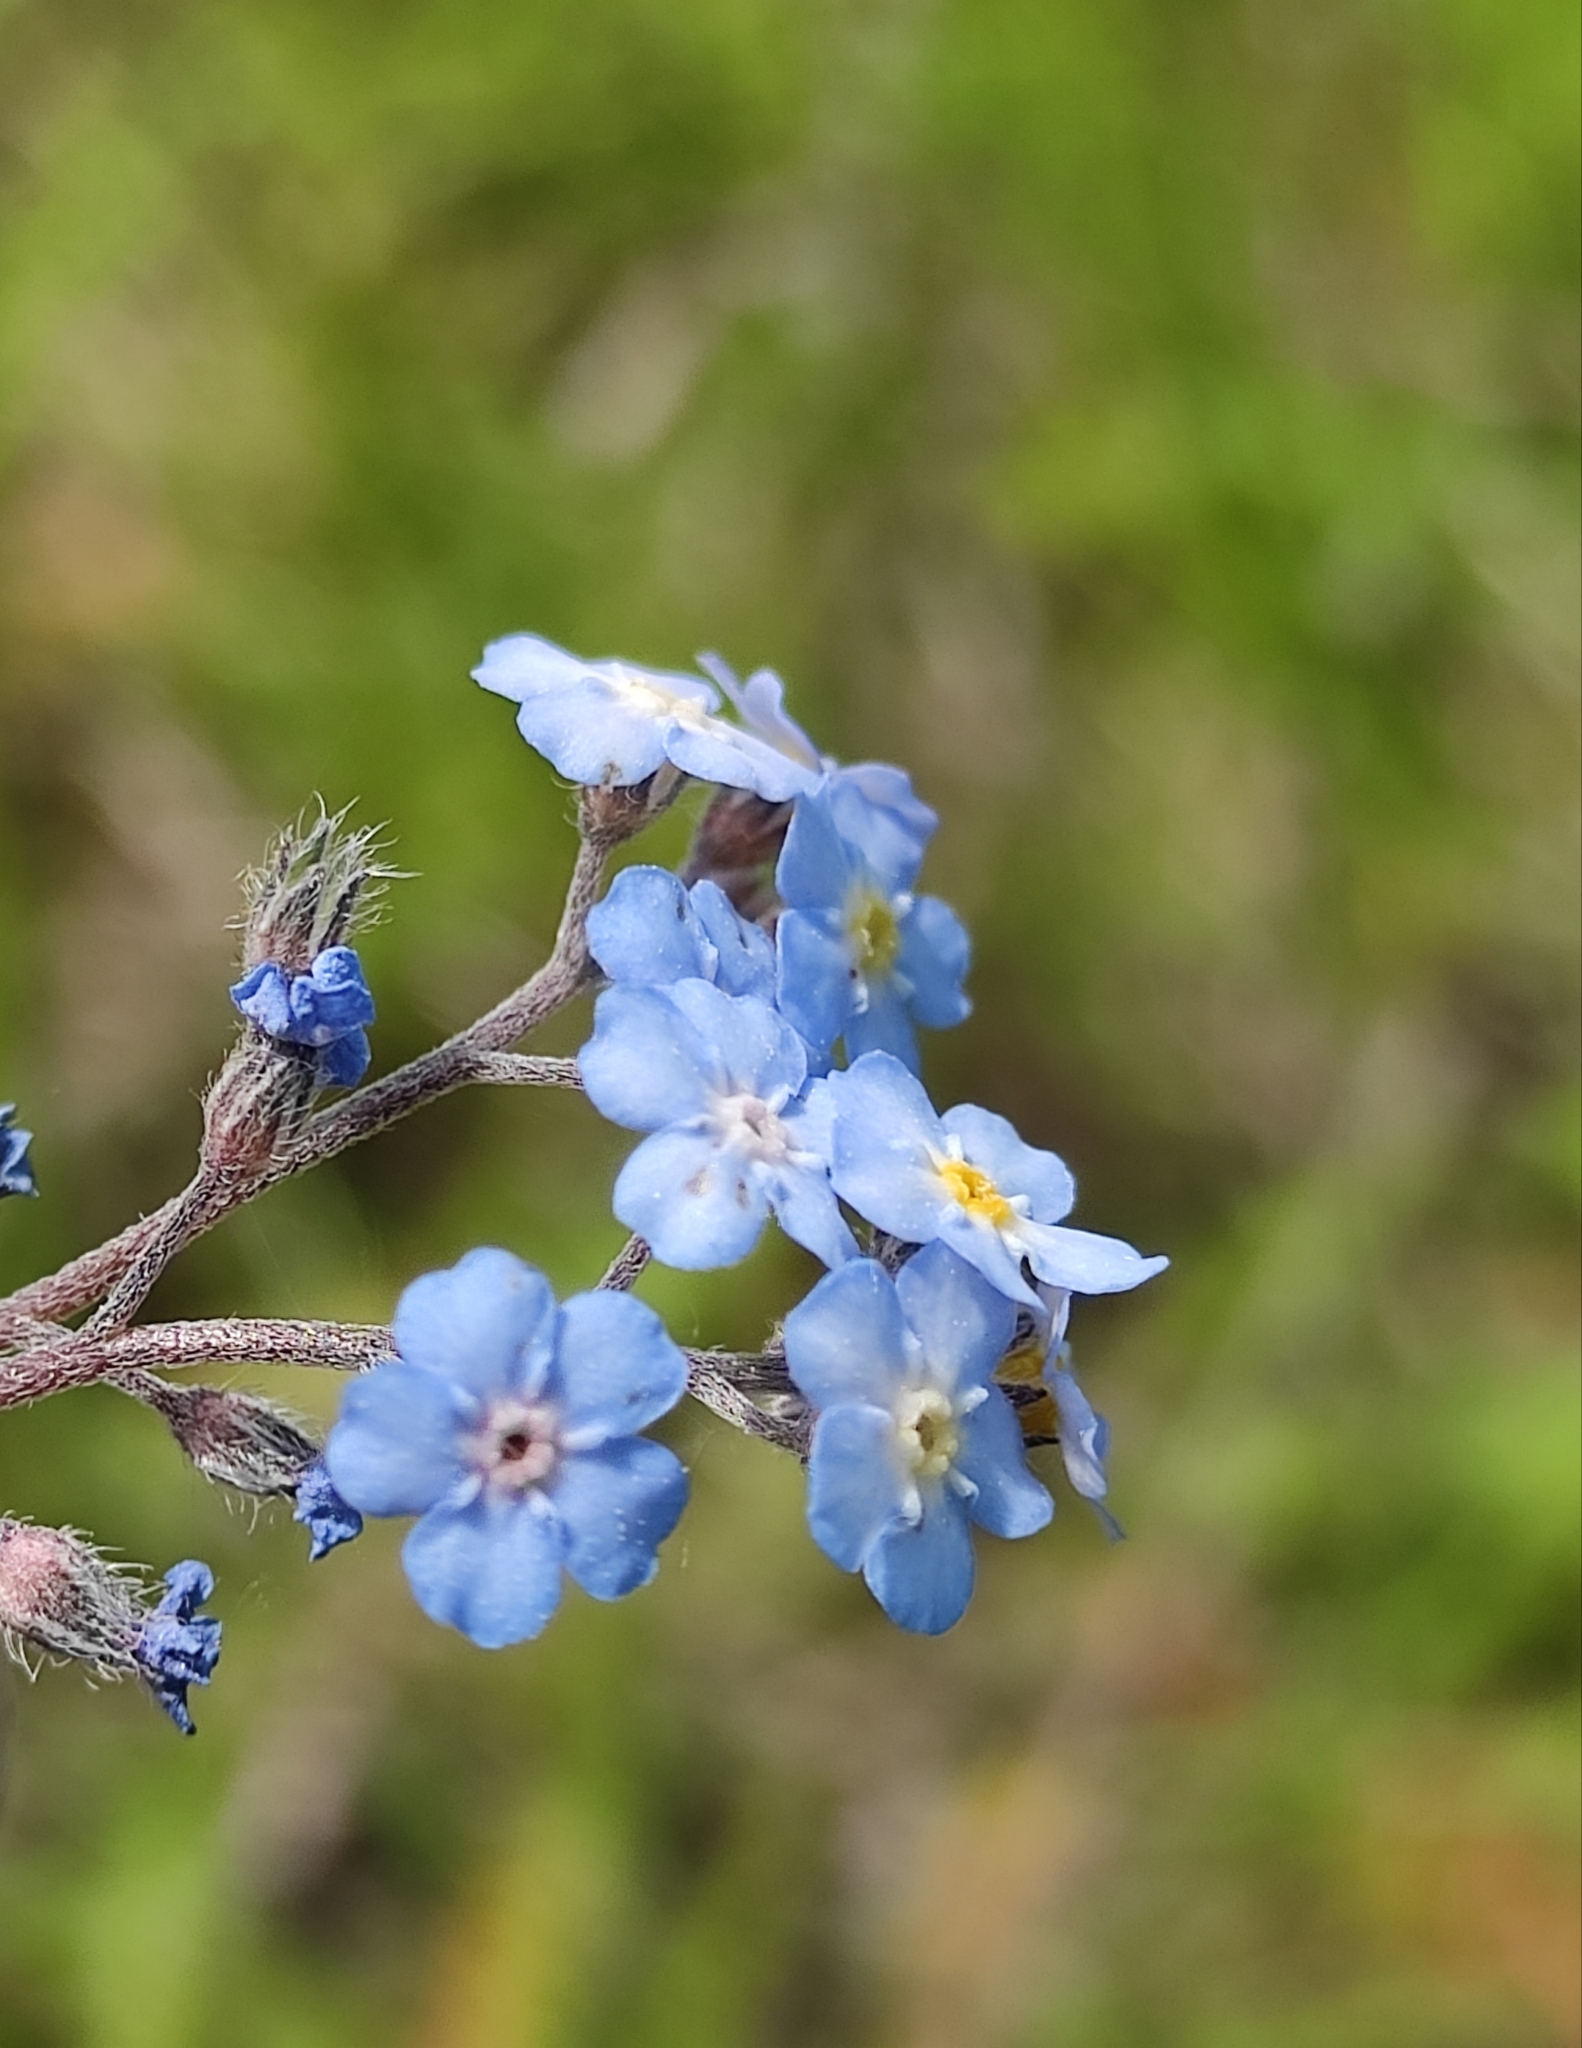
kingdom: Plantae
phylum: Tracheophyta
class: Magnoliopsida
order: Boraginales
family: Boraginaceae
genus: Myosotis
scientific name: Myosotis imitata
